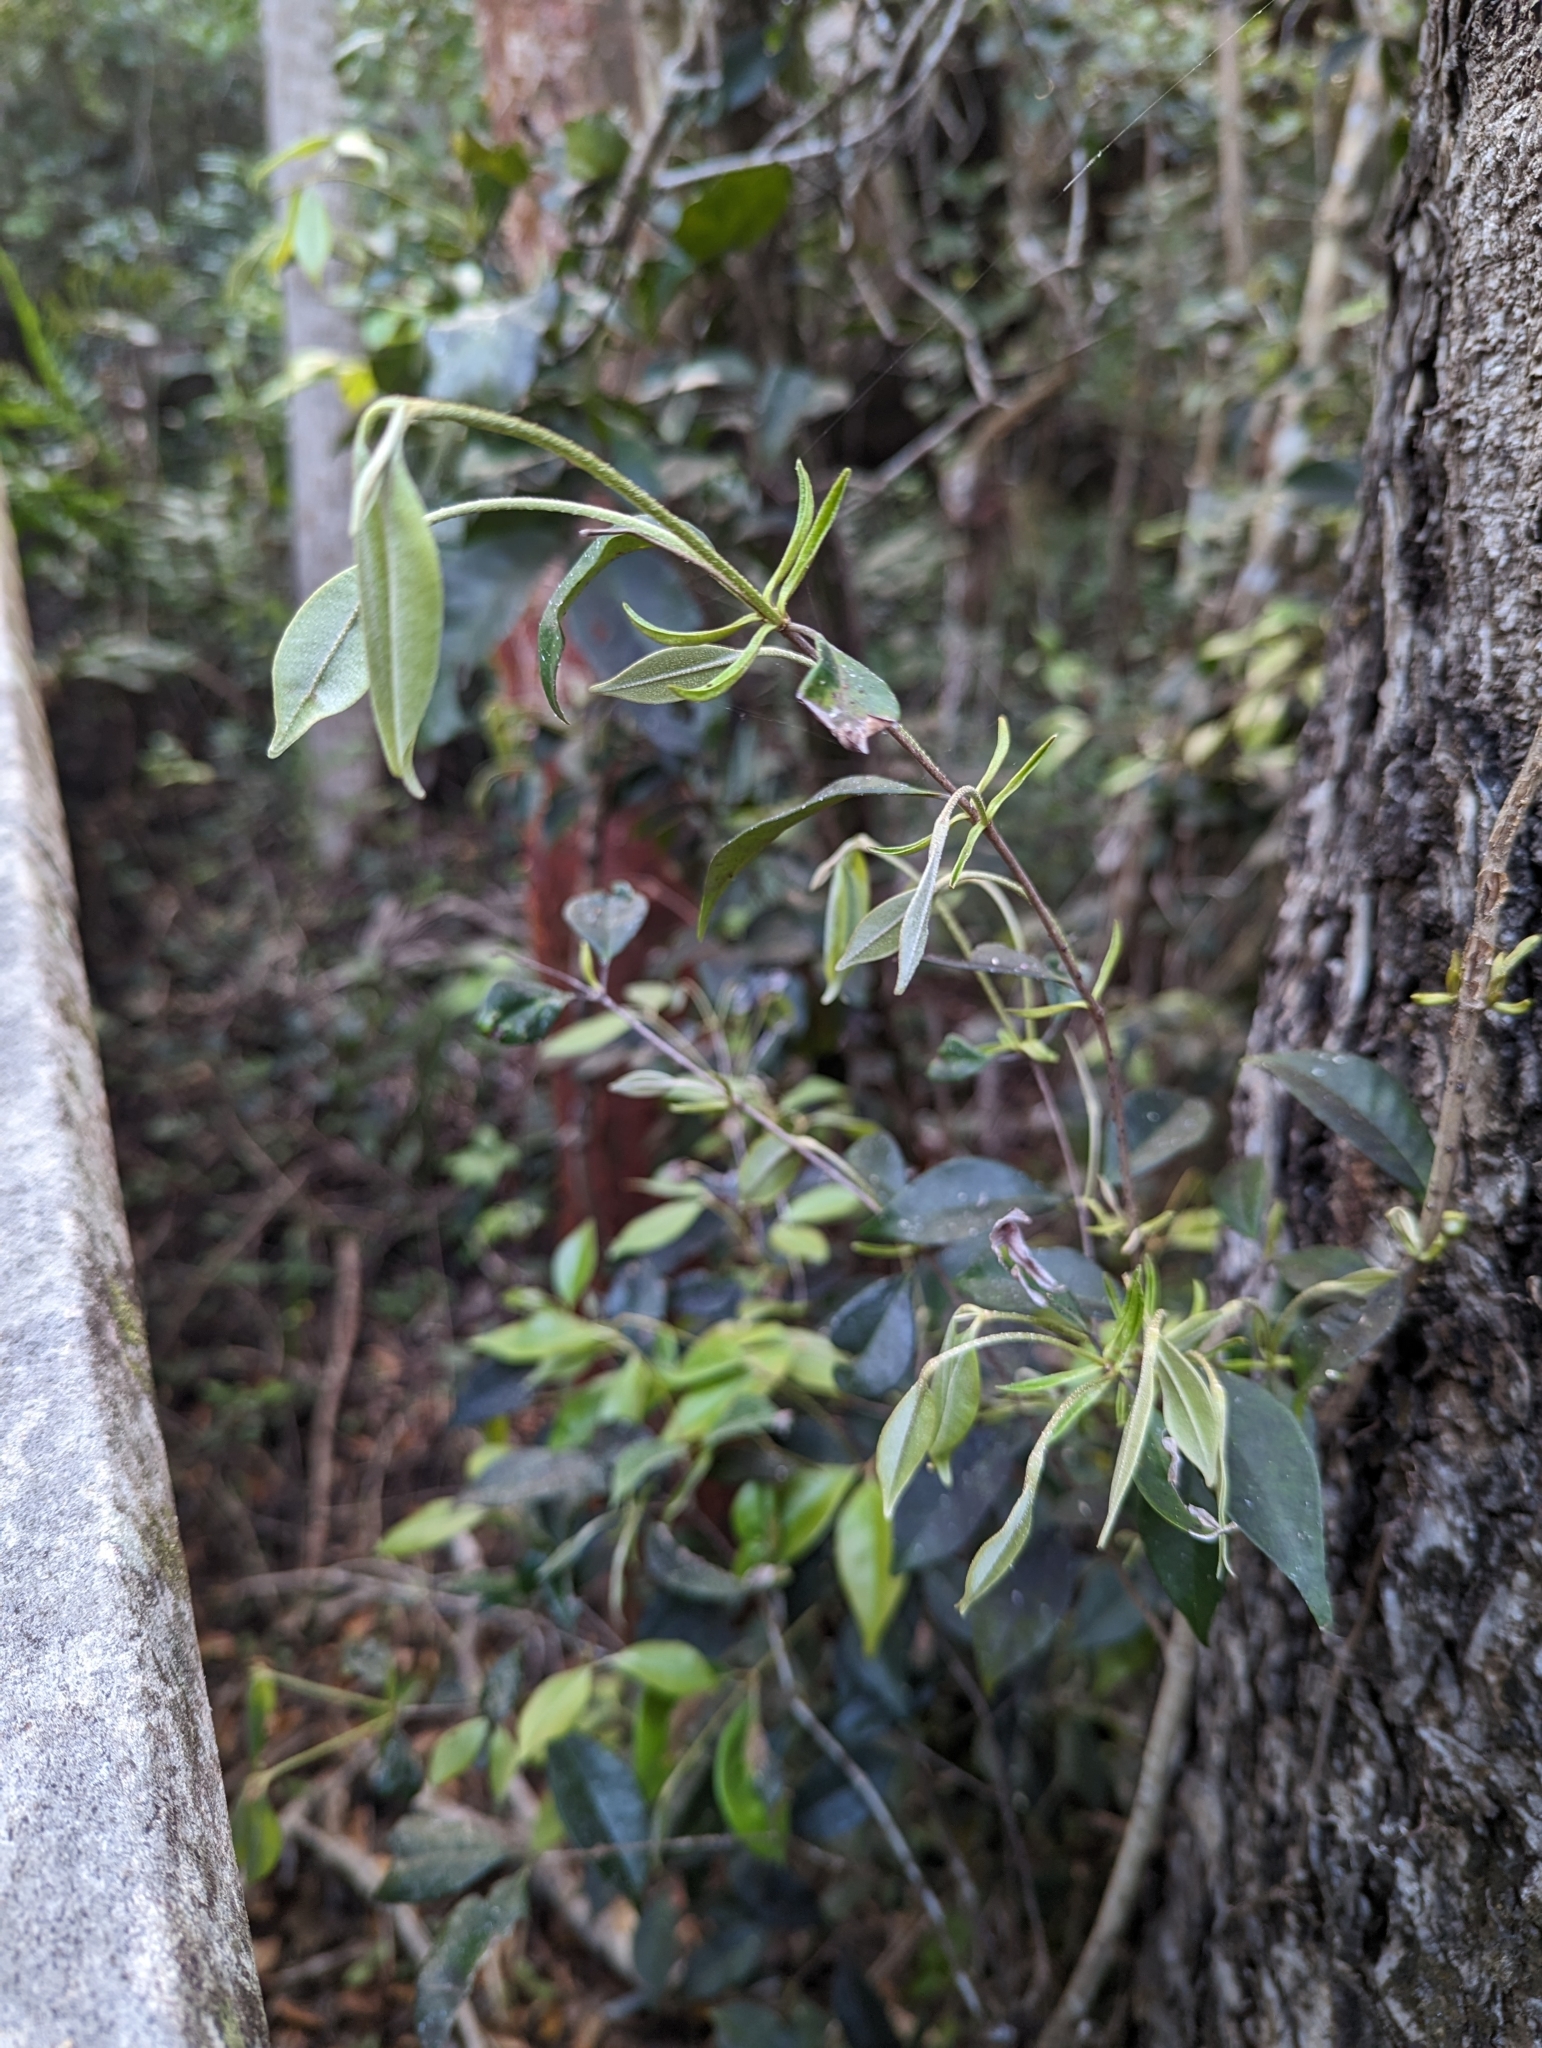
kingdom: Plantae
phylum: Tracheophyta
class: Magnoliopsida
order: Myrtales
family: Myrtaceae
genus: Myrcia
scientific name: Myrcia chytraculia
